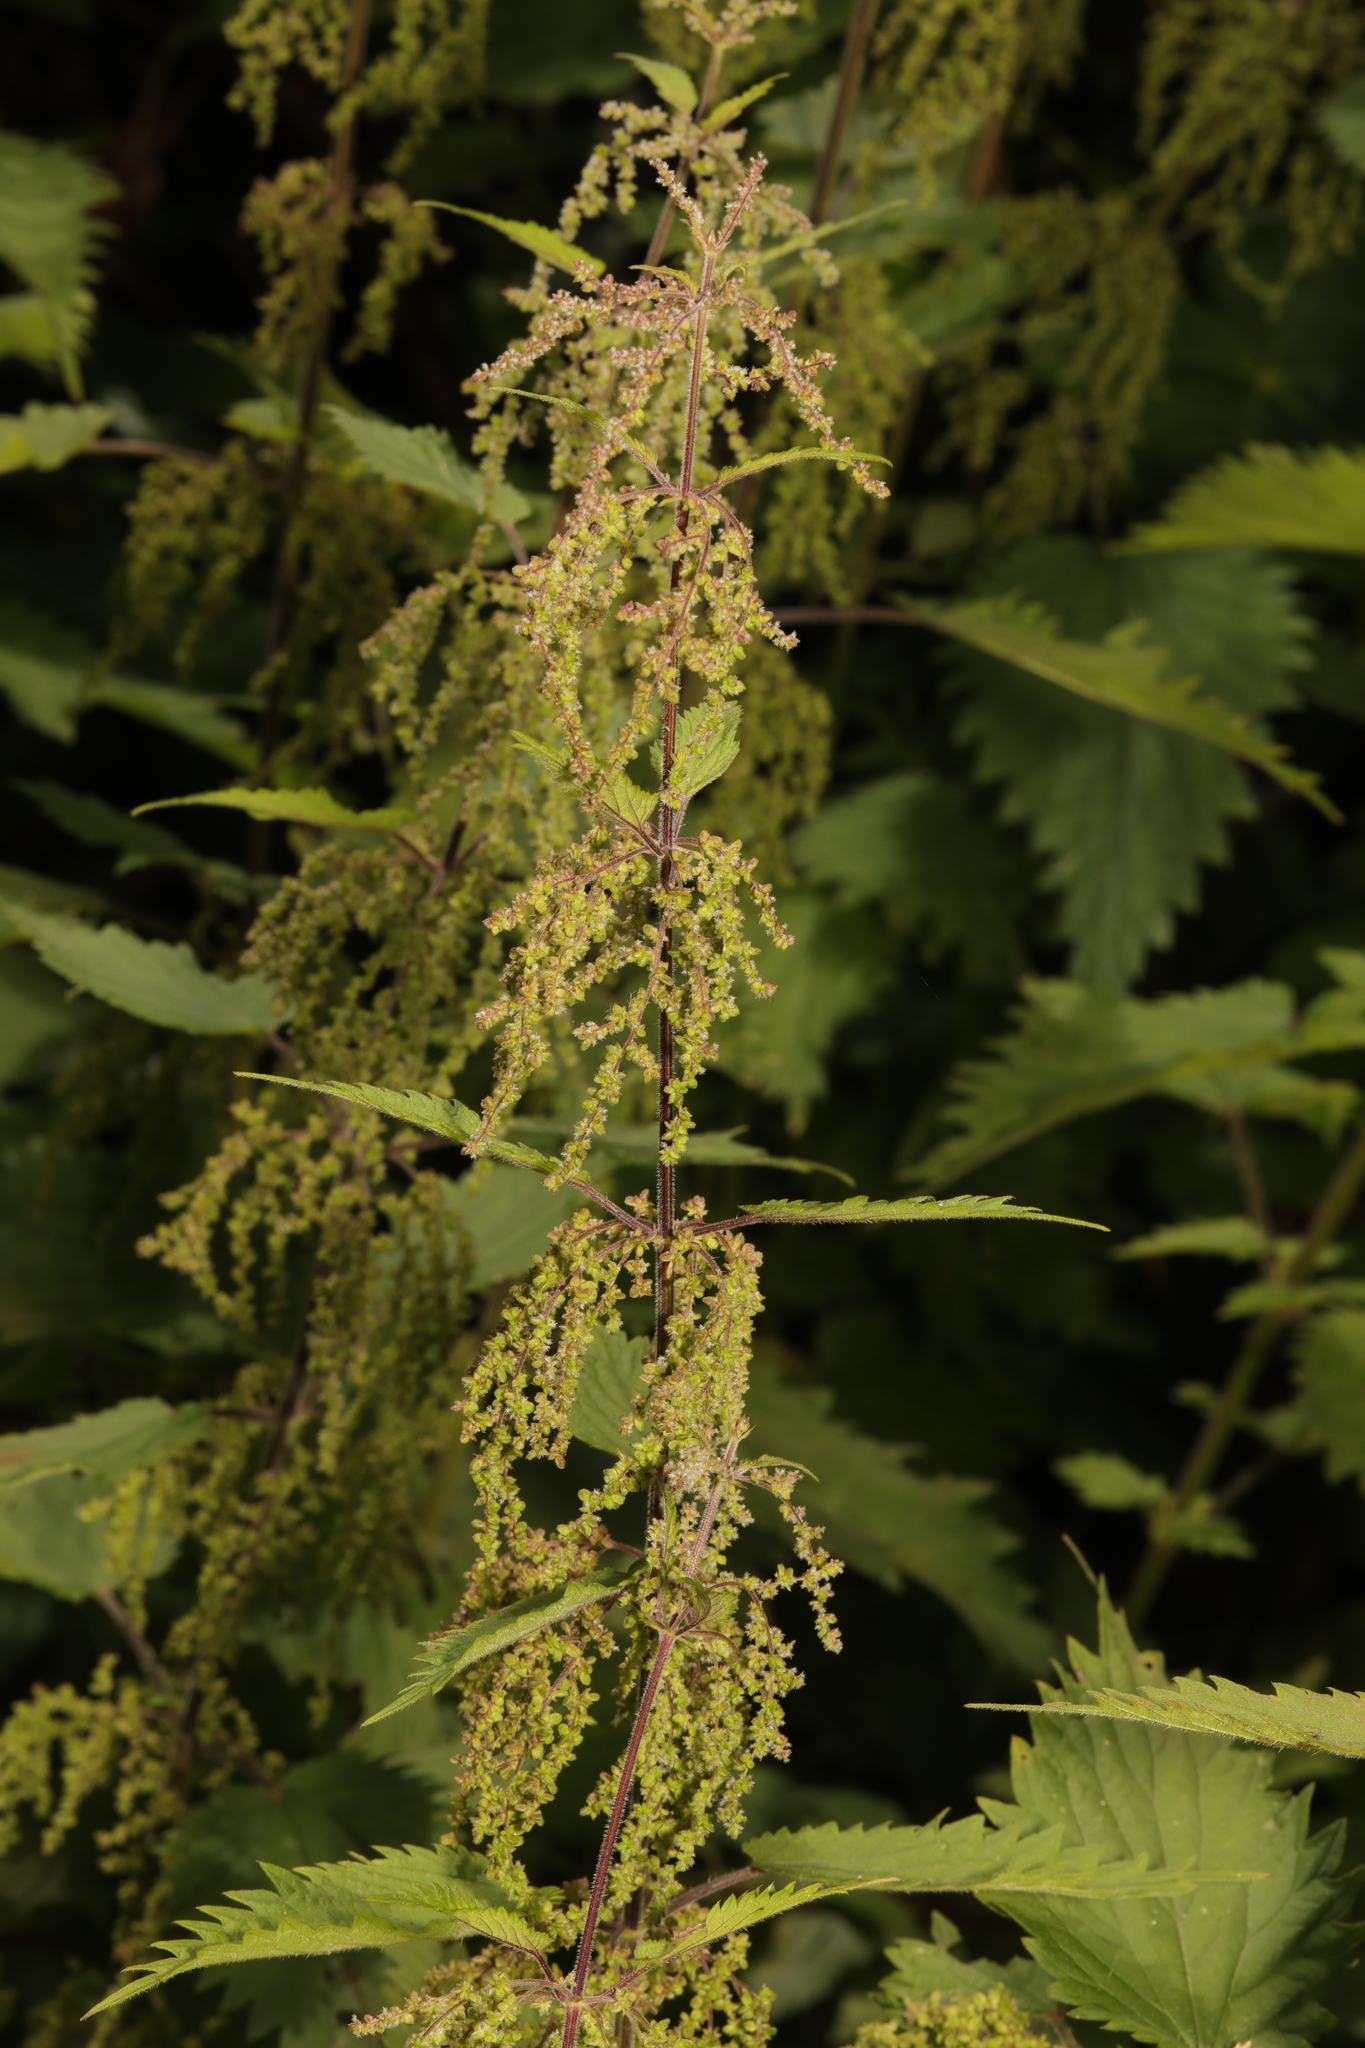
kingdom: Plantae
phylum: Tracheophyta
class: Magnoliopsida
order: Rosales
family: Urticaceae
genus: Urtica
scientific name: Urtica dioica
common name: Common nettle
